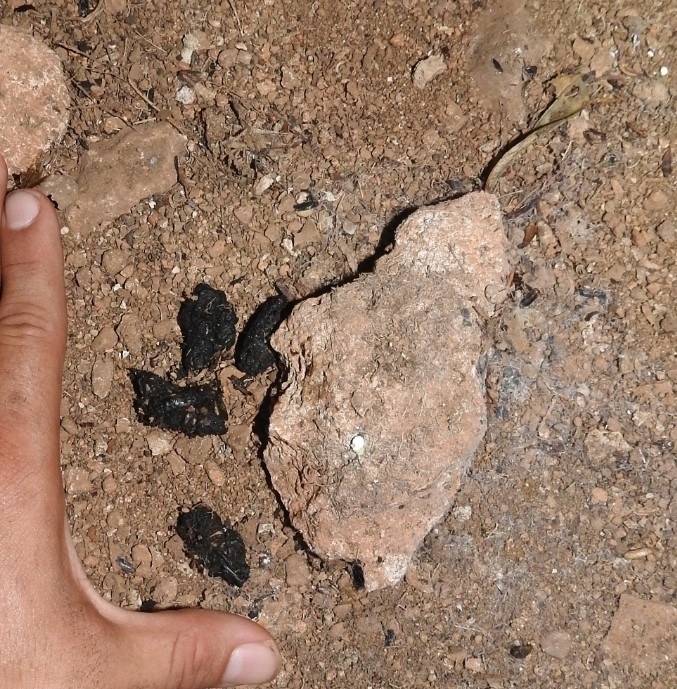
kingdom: Animalia
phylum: Chordata
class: Mammalia
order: Carnivora
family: Canidae
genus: Urocyon
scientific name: Urocyon cinereoargenteus
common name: Gray fox
